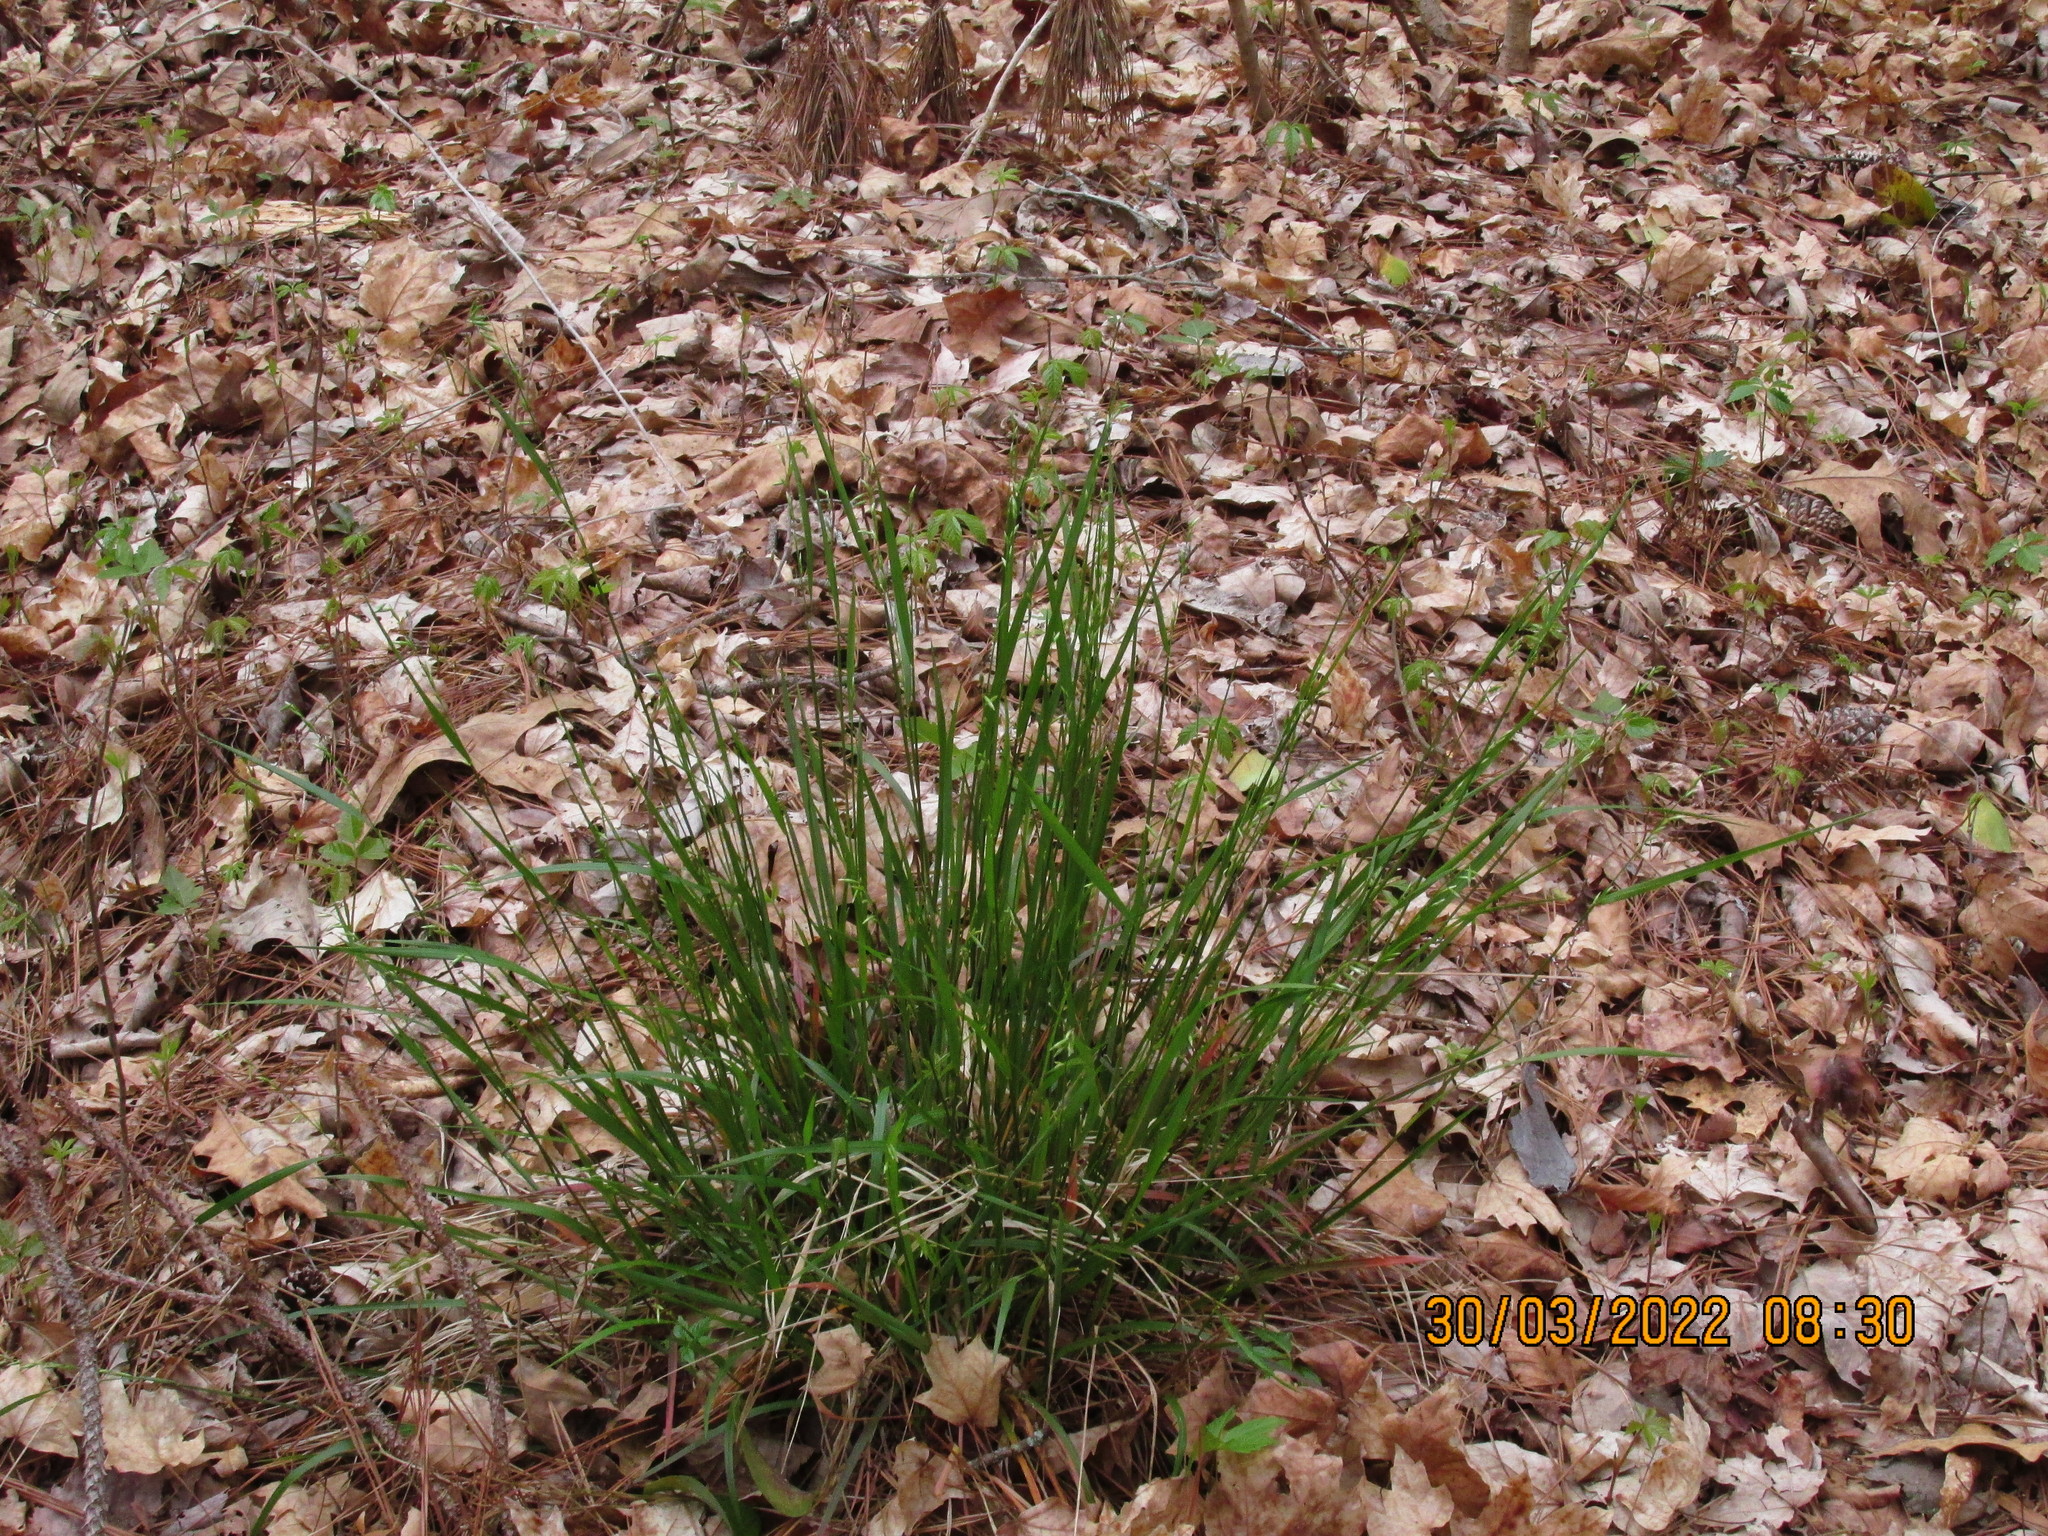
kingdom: Plantae
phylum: Tracheophyta
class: Liliopsida
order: Poales
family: Poaceae
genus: Melica
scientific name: Melica mutica
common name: Two-flower melic
